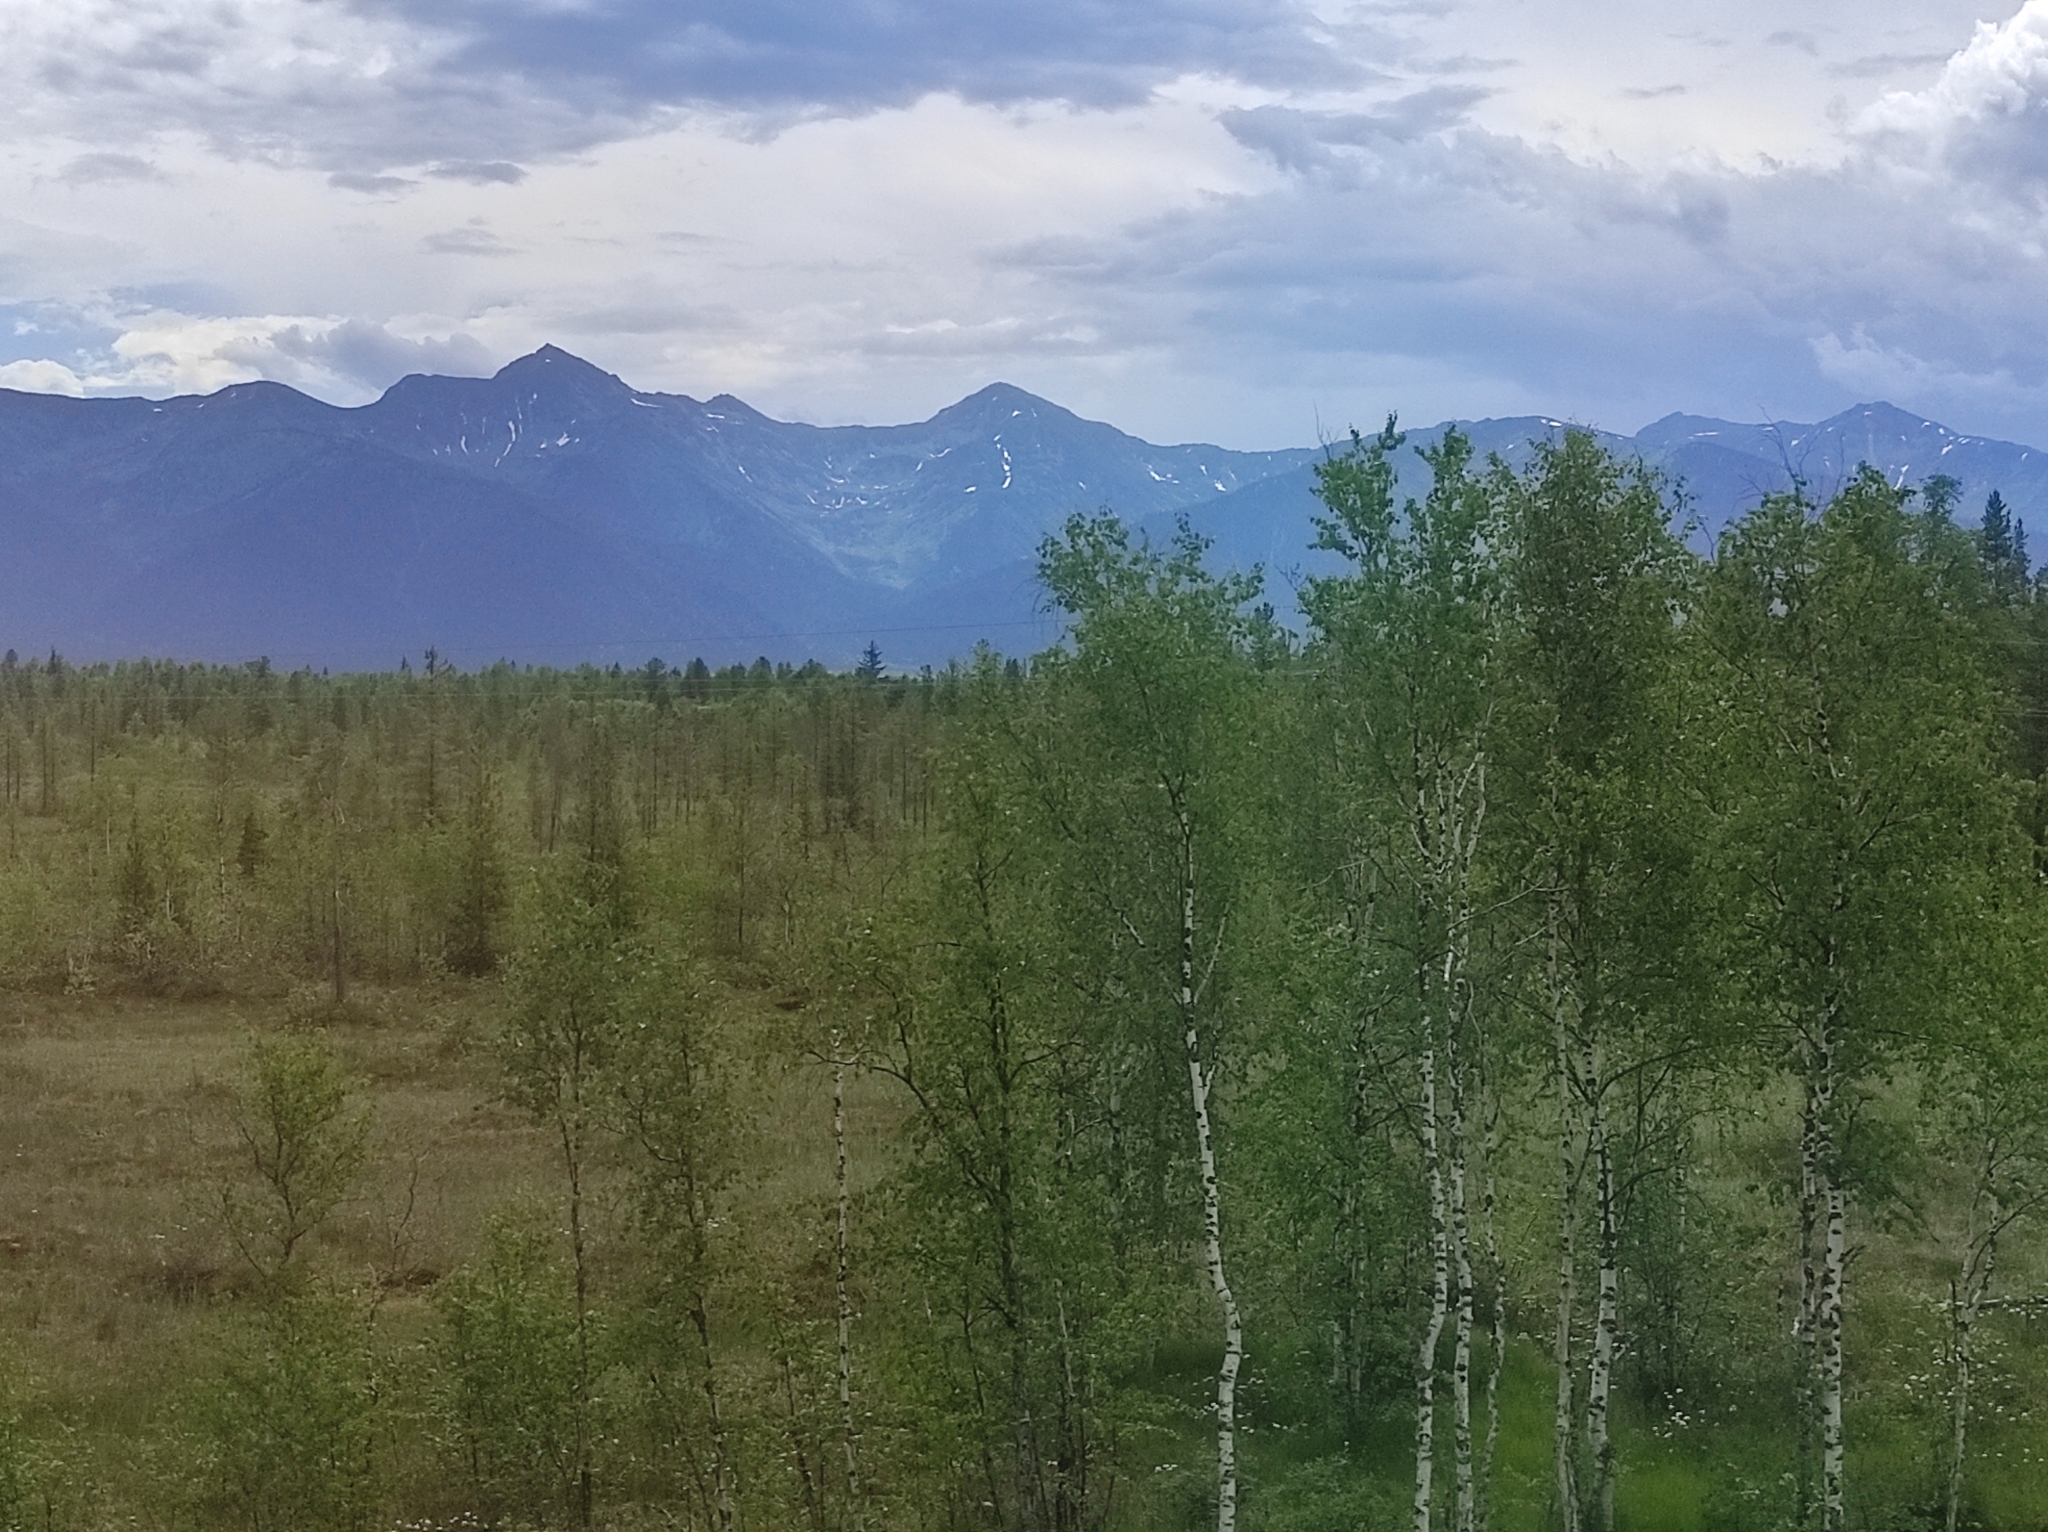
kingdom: Plantae
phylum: Tracheophyta
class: Pinopsida
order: Pinales
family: Pinaceae
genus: Larix
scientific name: Larix sibirica
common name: Siberian larch
